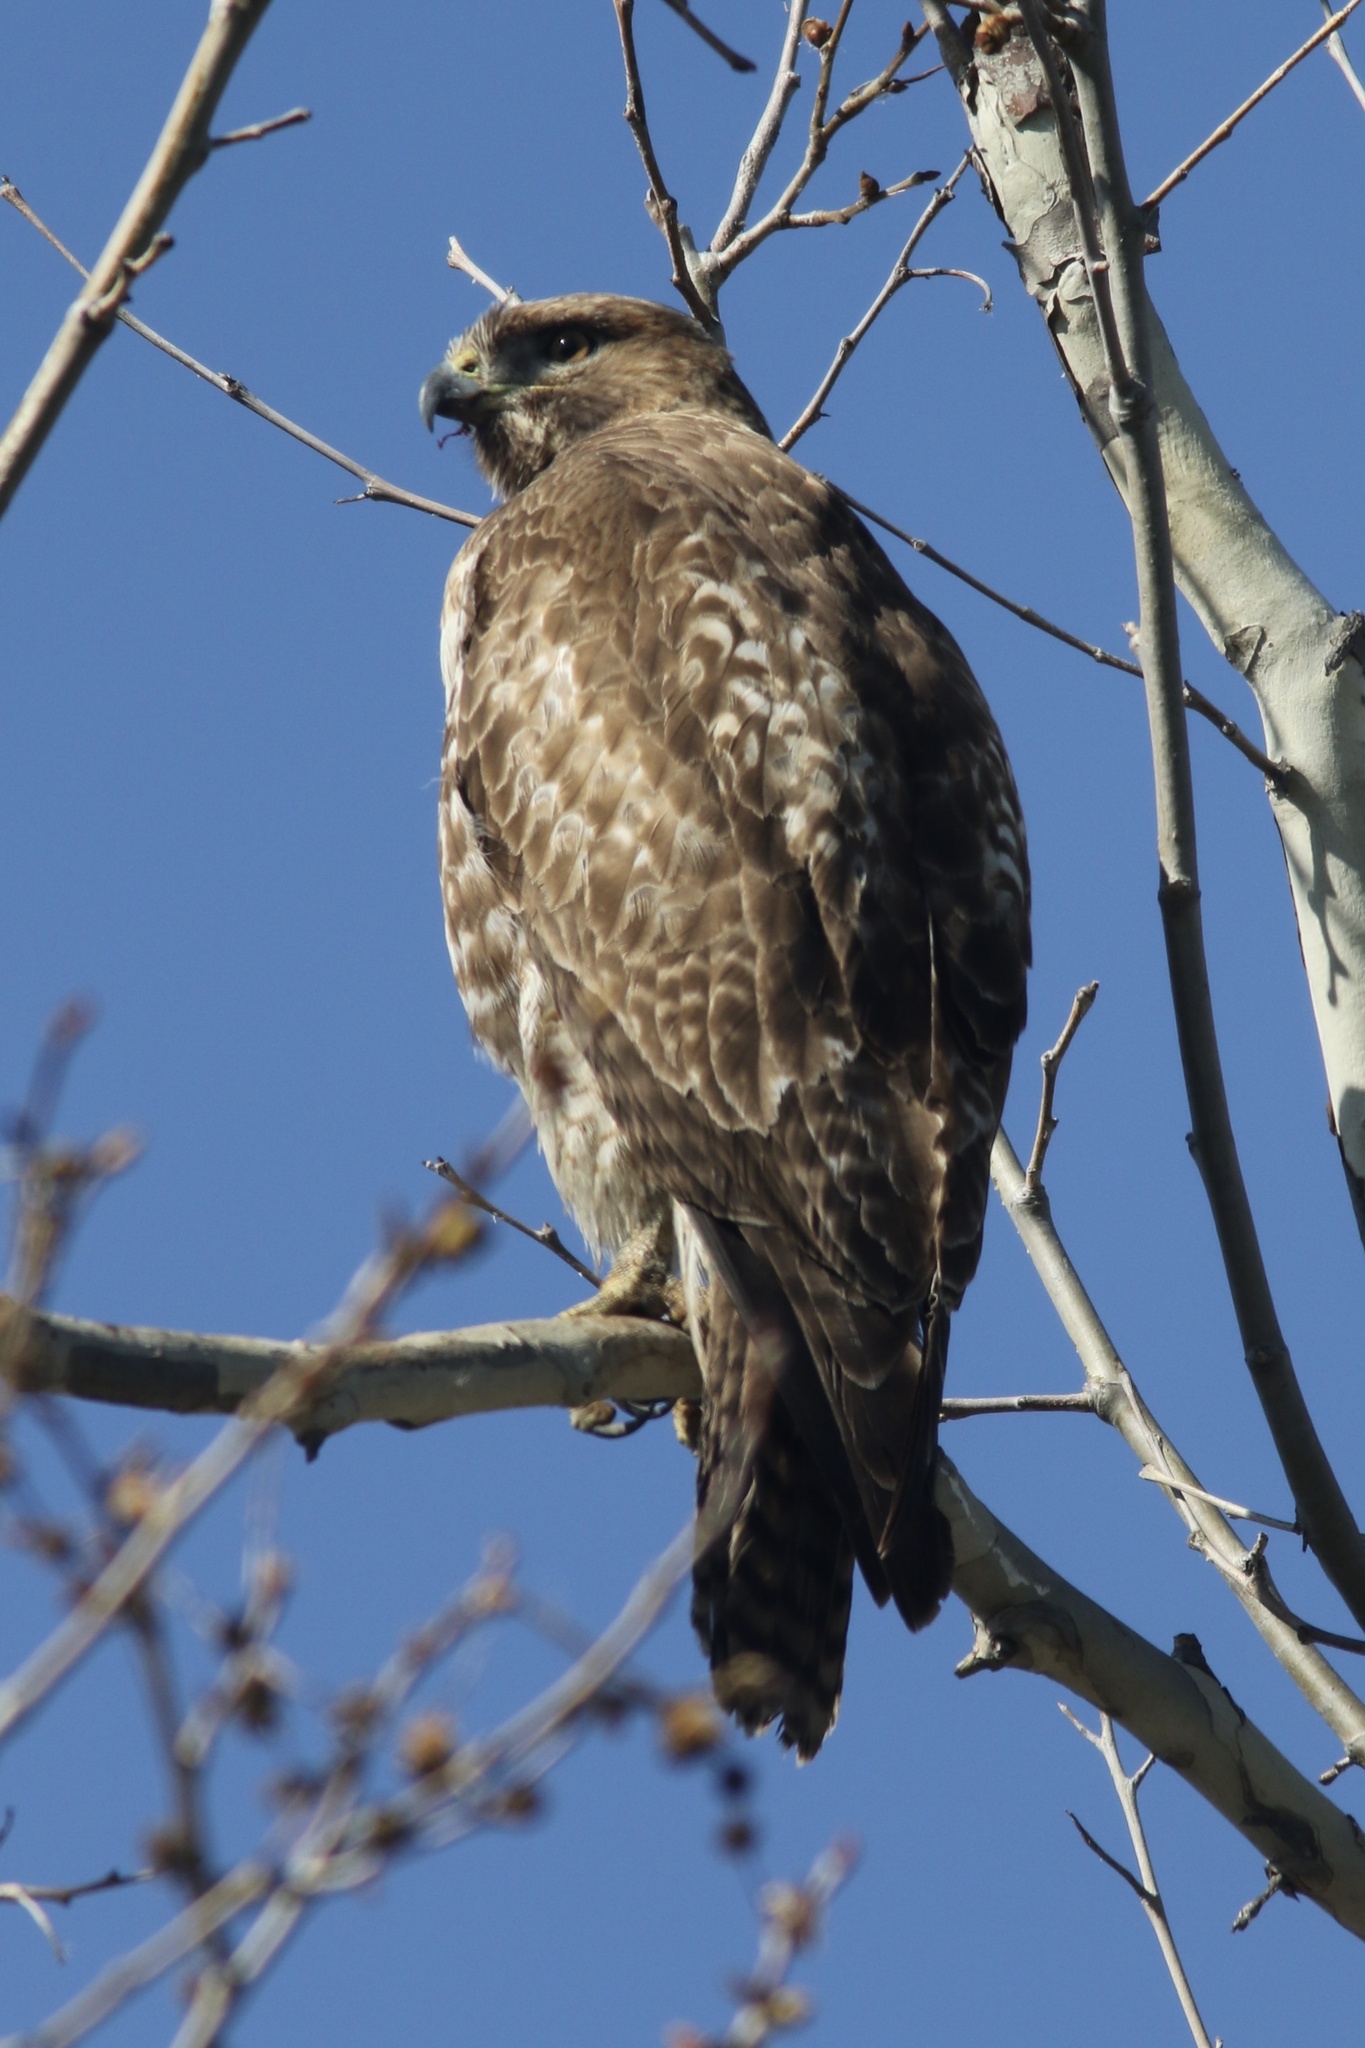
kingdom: Animalia
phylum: Chordata
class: Aves
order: Accipitriformes
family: Accipitridae
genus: Buteo
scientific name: Buteo jamaicensis
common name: Red-tailed hawk
